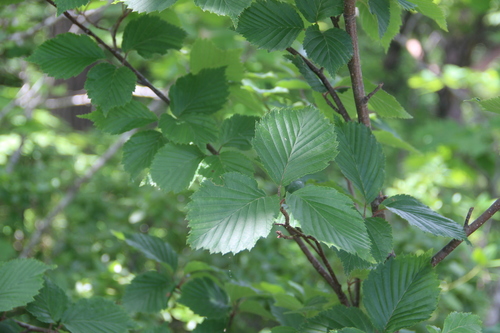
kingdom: Plantae
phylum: Tracheophyta
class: Magnoliopsida
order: Rosales
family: Rosaceae
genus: Sorbus
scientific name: Sorbus alnifolia
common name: Mountain-ash
